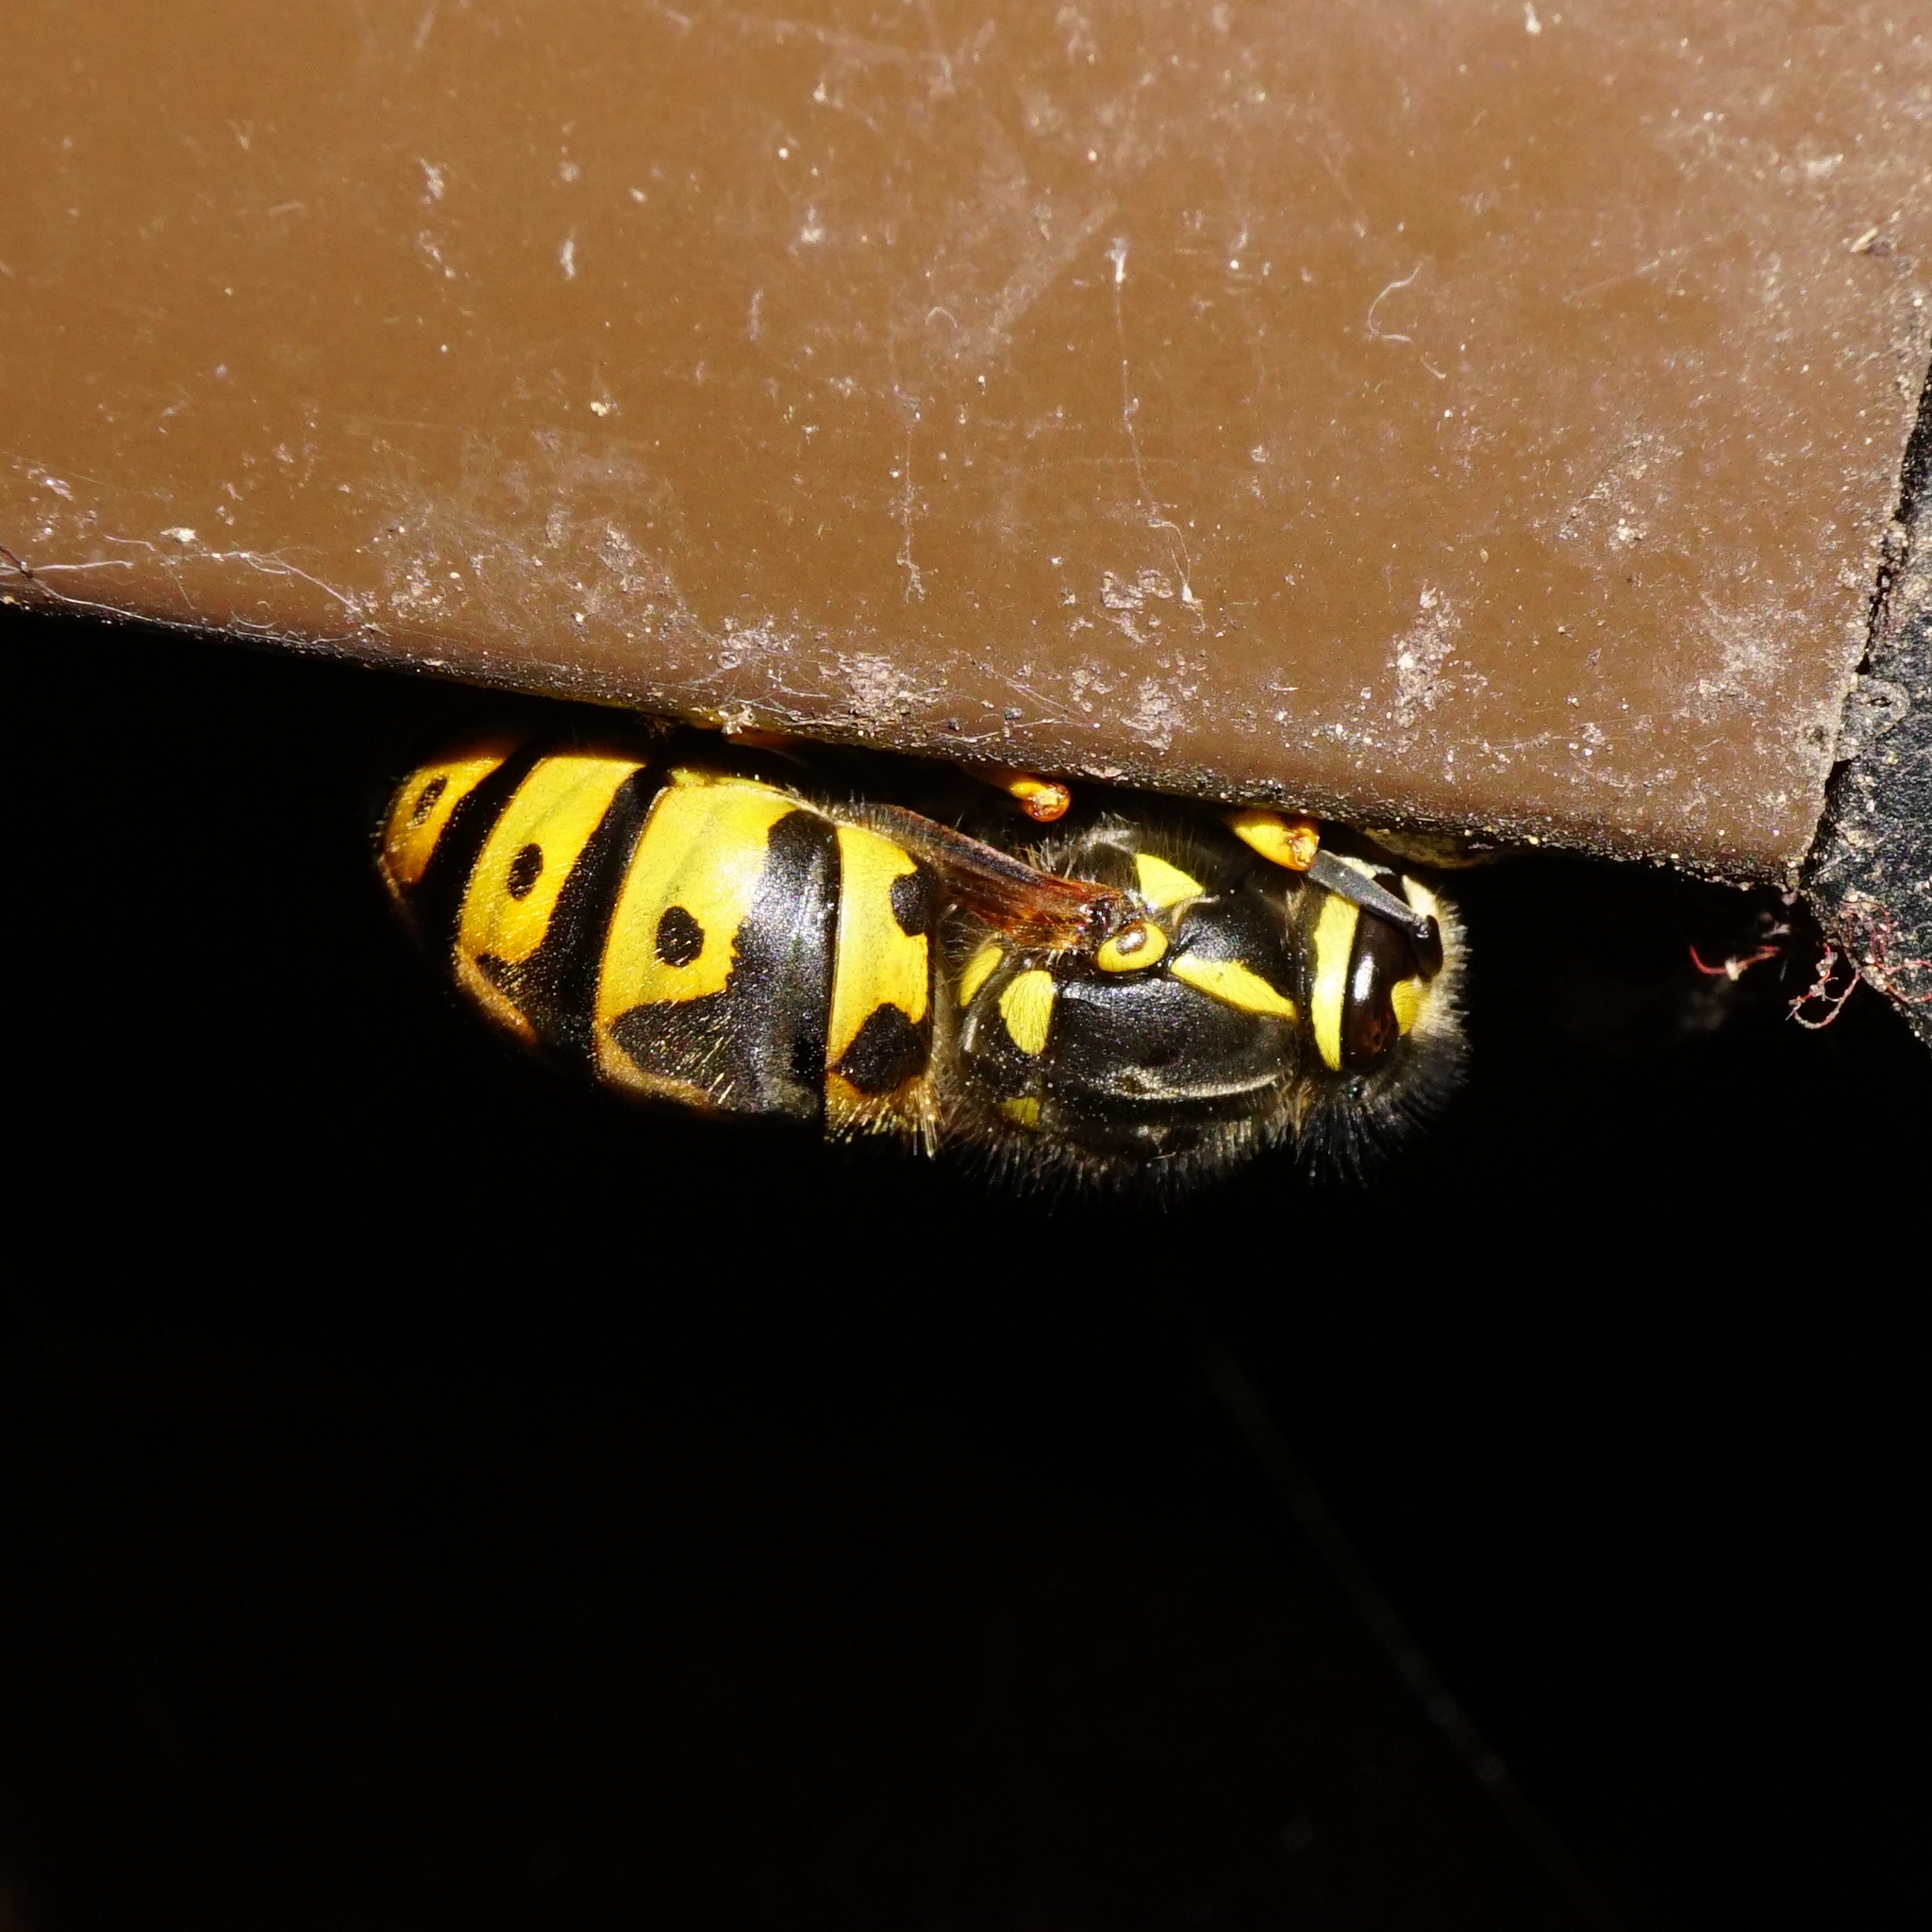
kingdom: Animalia
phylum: Arthropoda
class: Insecta
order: Hymenoptera
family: Vespidae
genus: Vespula
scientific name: Vespula germanica
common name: German wasp
